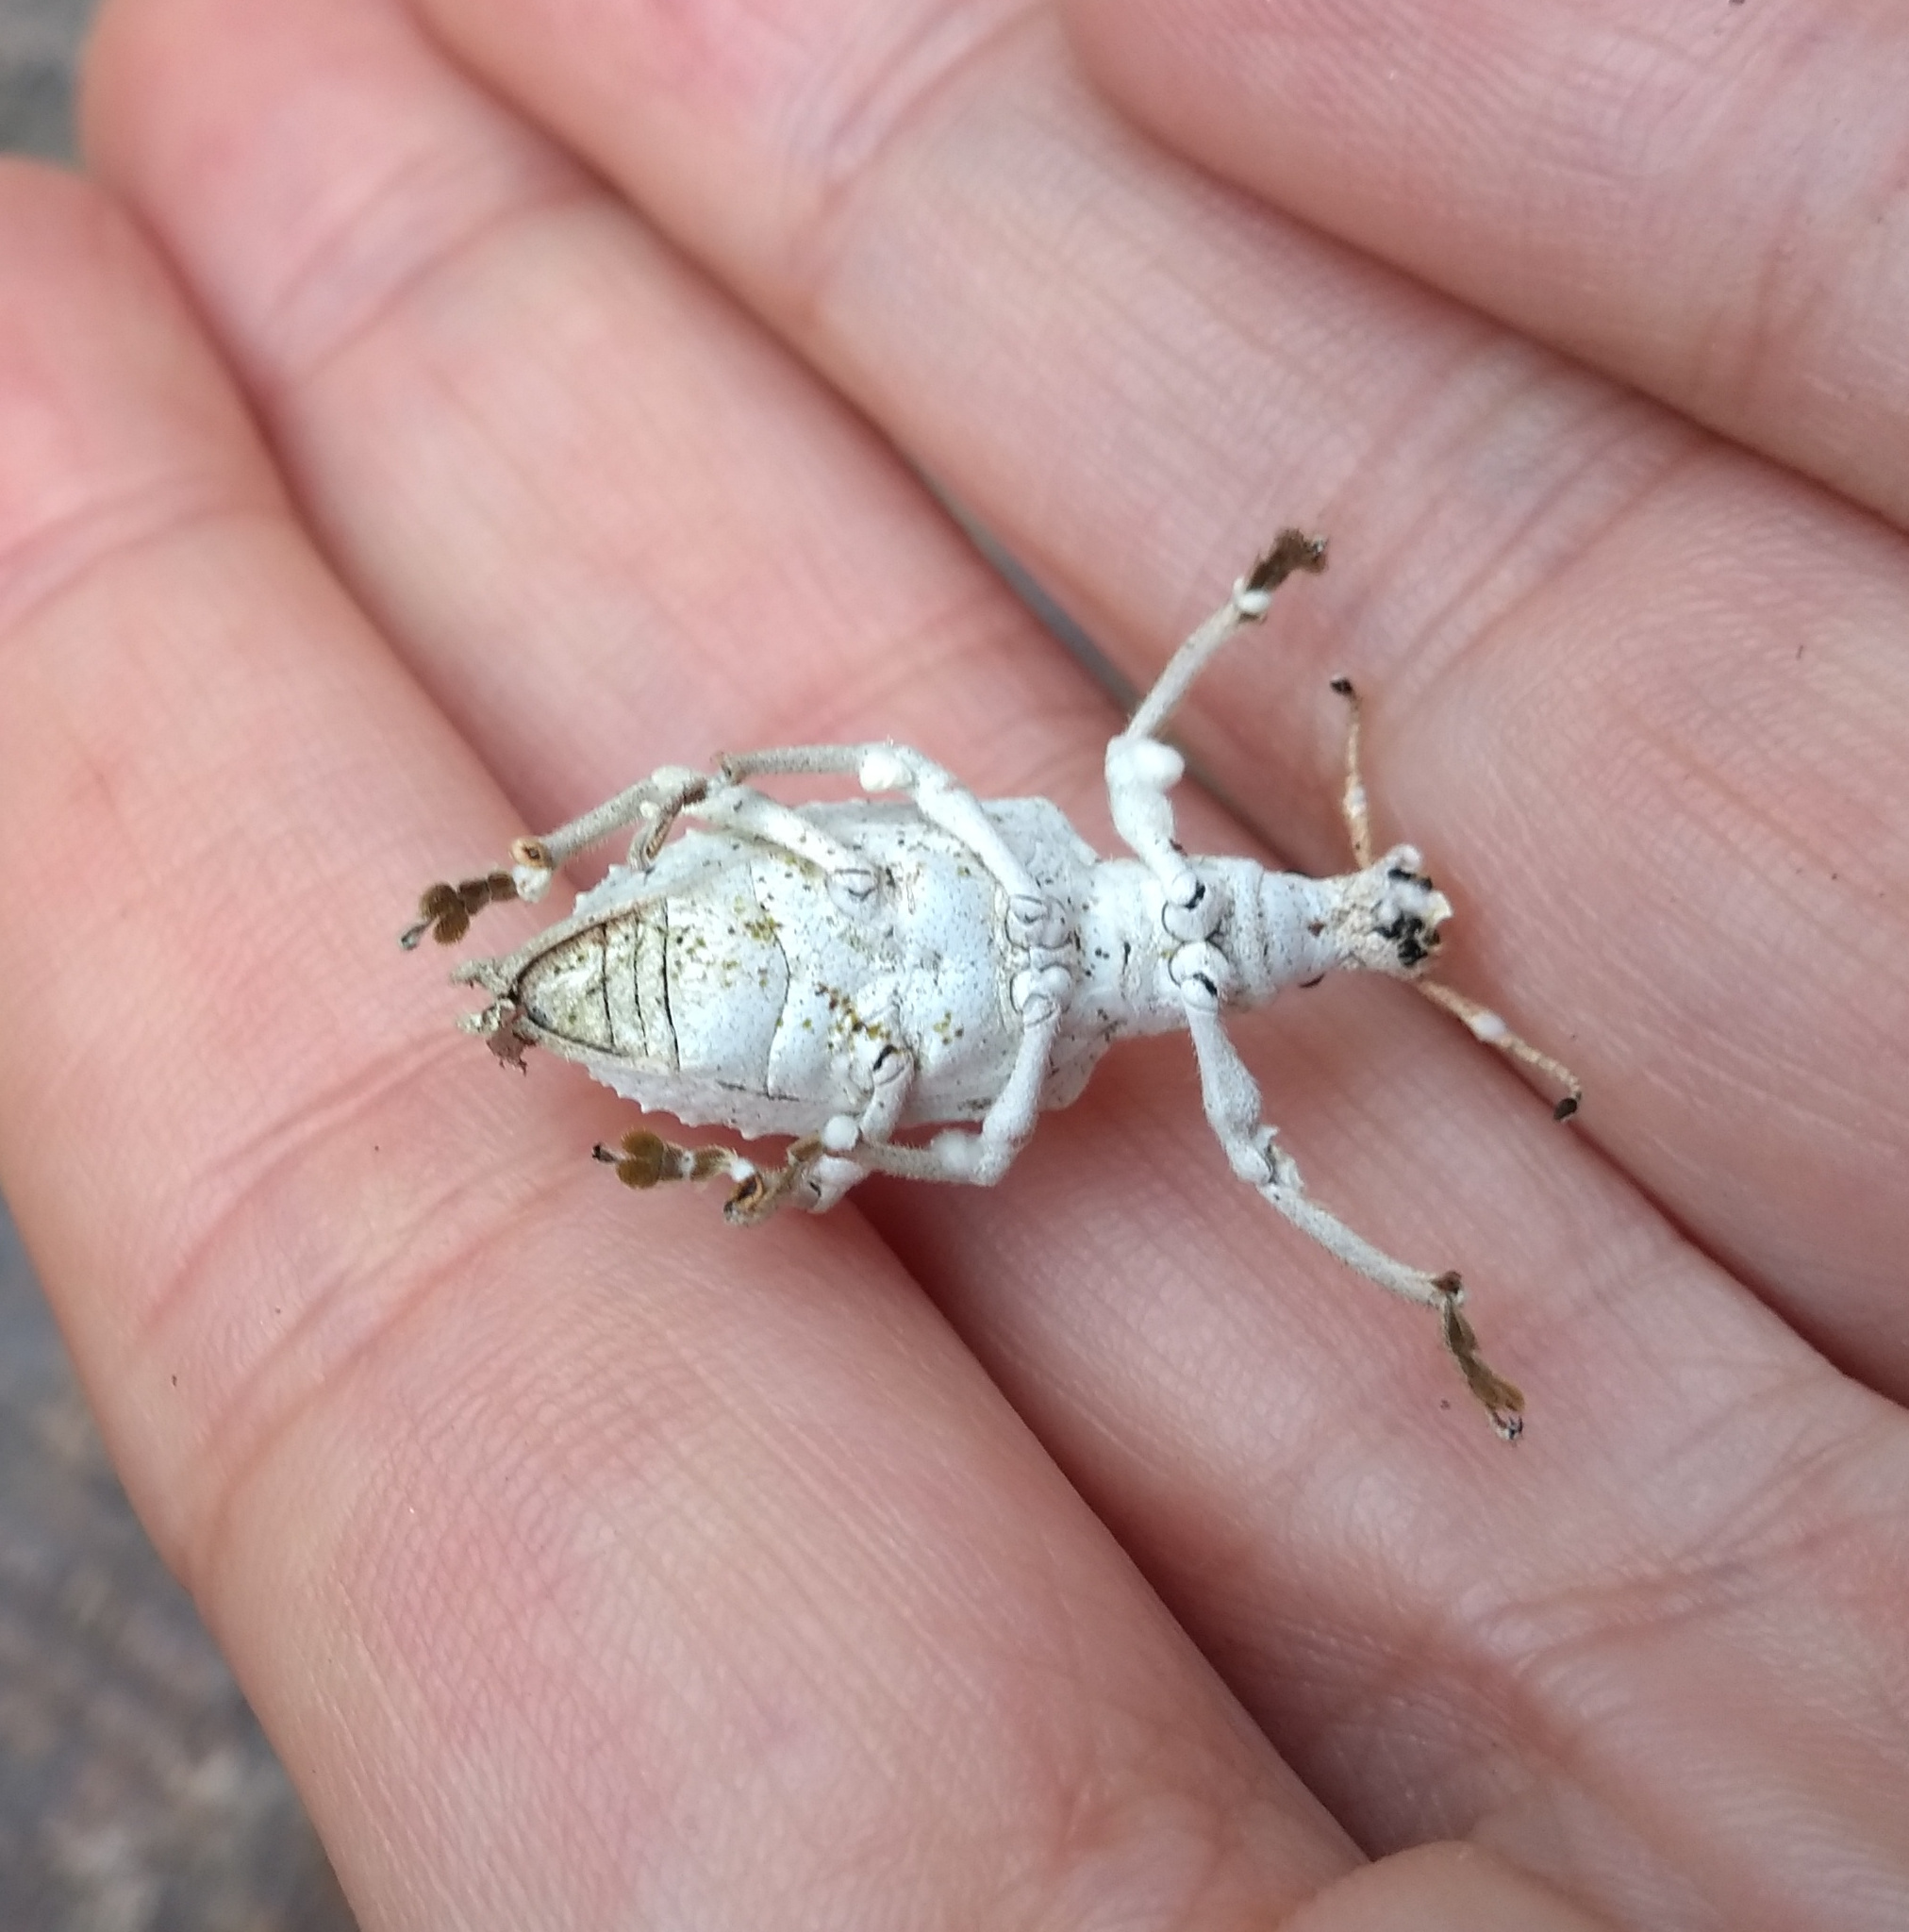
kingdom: Animalia
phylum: Arthropoda
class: Insecta
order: Coleoptera
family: Curculionidae
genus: Compsus
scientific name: Compsus niveus
